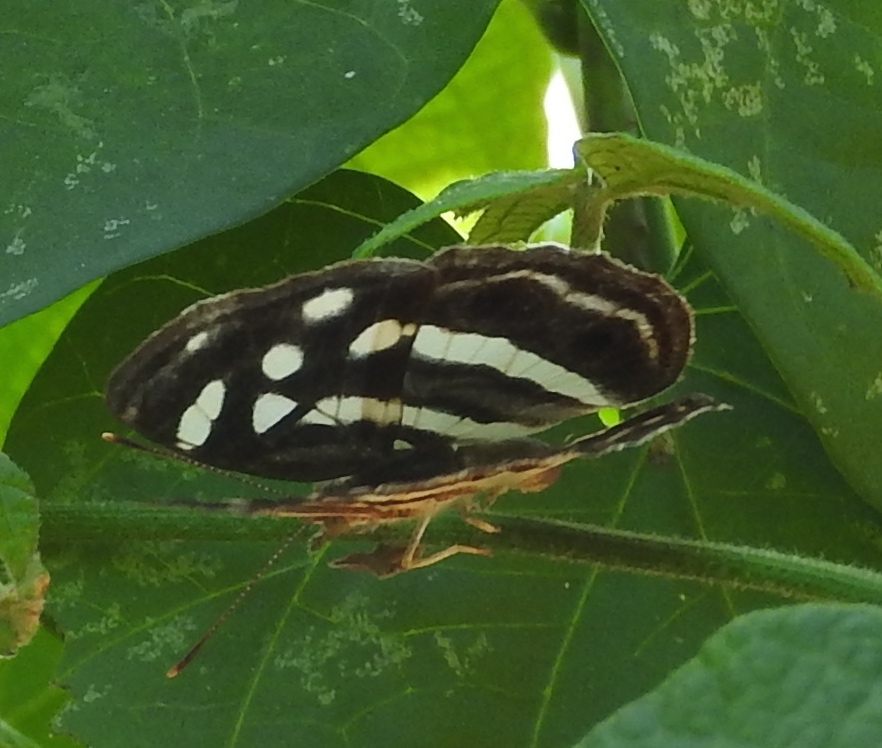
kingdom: Animalia
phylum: Arthropoda
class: Insecta
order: Lepidoptera
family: Nymphalidae
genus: Dynamine
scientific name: Dynamine mylitta
